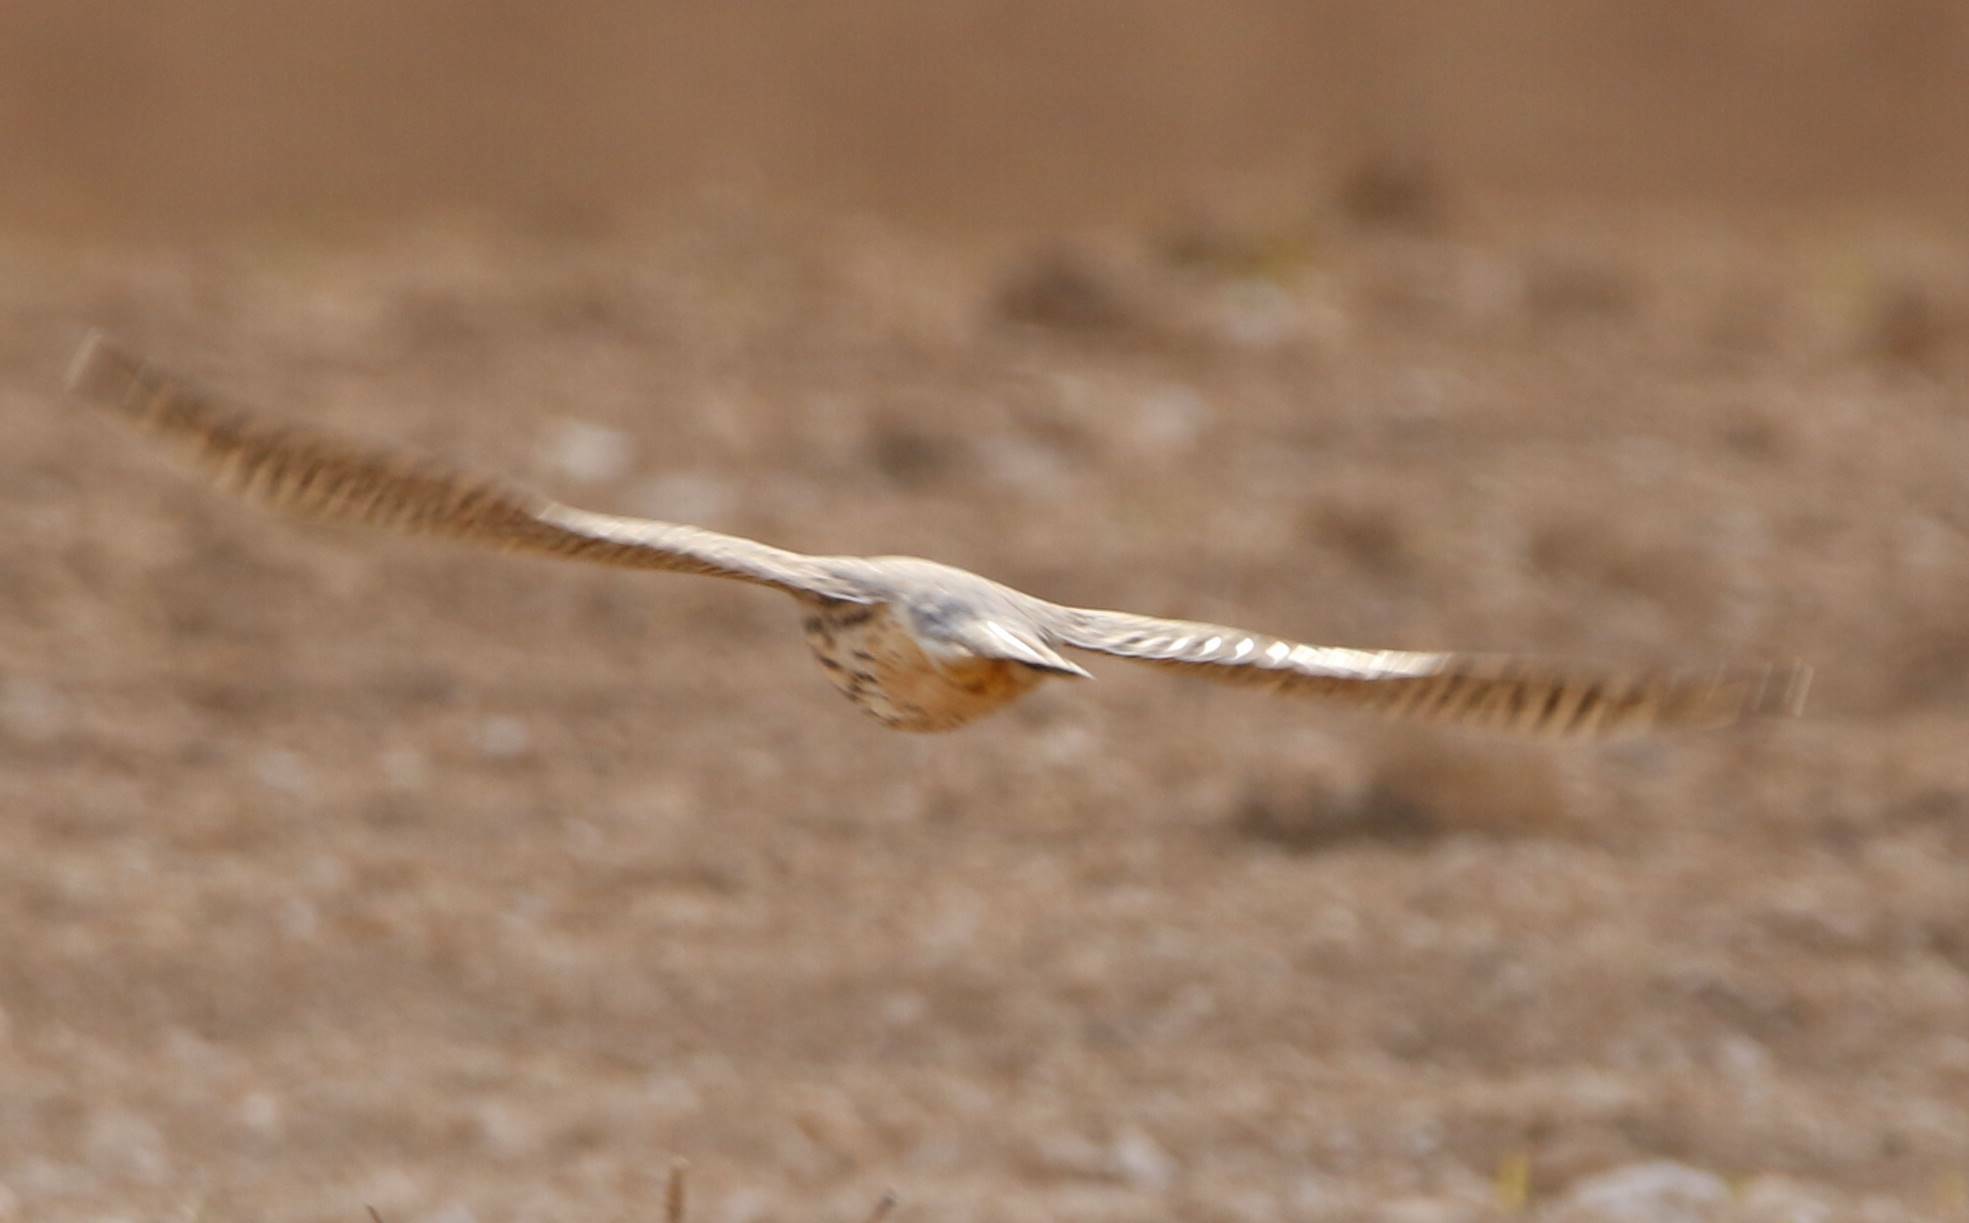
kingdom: Animalia
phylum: Chordata
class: Aves
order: Falconiformes
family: Falconidae
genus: Falco
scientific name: Falco columbarius
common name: Merlin
